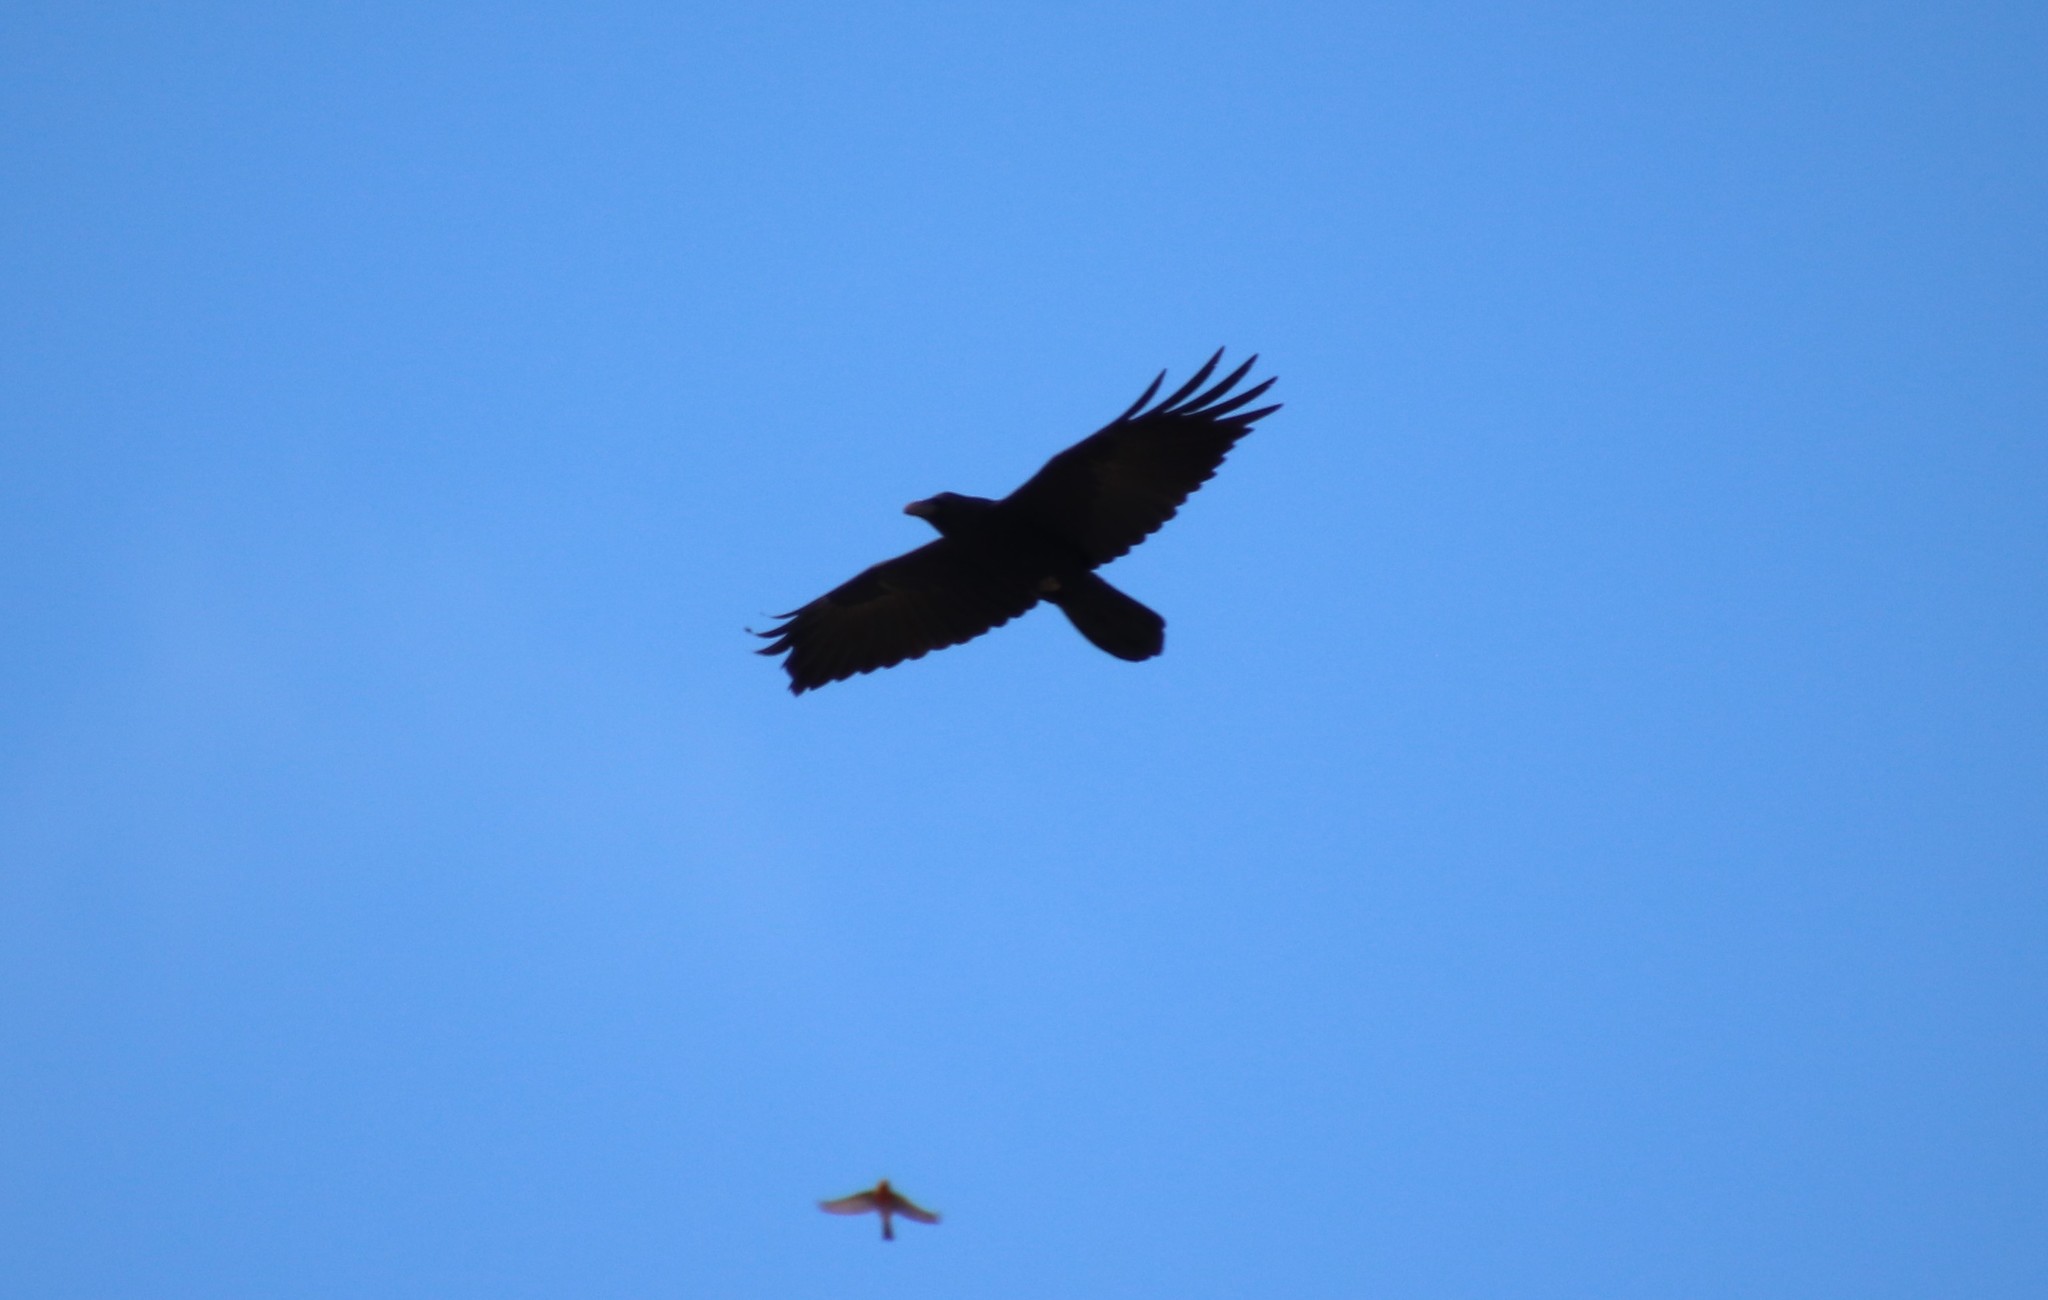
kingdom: Animalia
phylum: Chordata
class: Aves
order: Passeriformes
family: Corvidae
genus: Corvus
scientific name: Corvus corax
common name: Common raven
